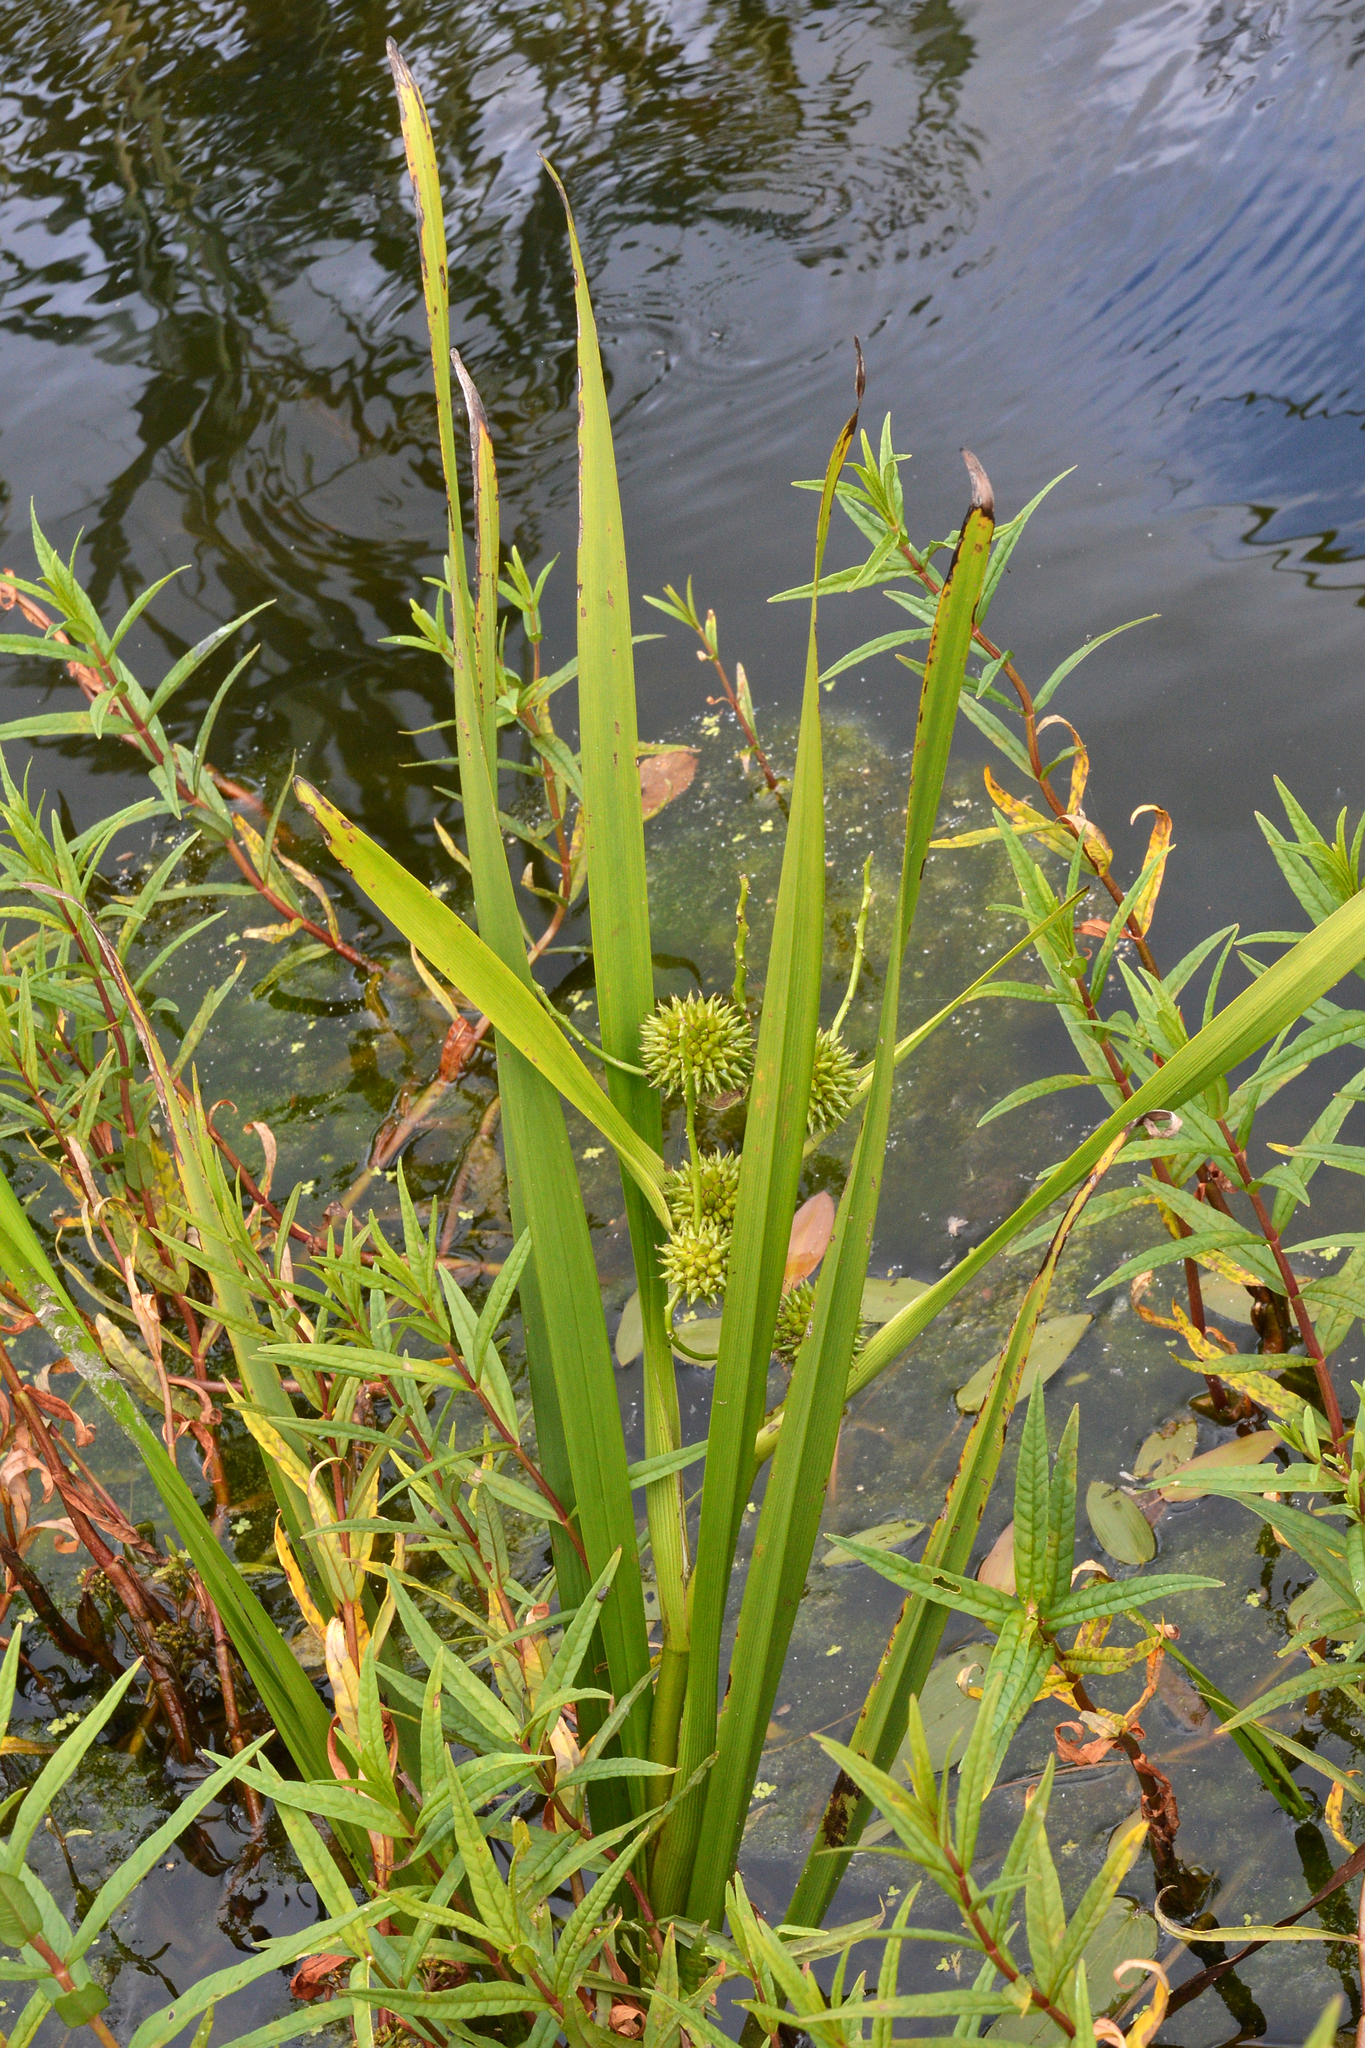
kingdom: Plantae
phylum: Tracheophyta
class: Liliopsida
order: Poales
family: Typhaceae
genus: Sparganium
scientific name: Sparganium erectum
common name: Branched bur-reed
